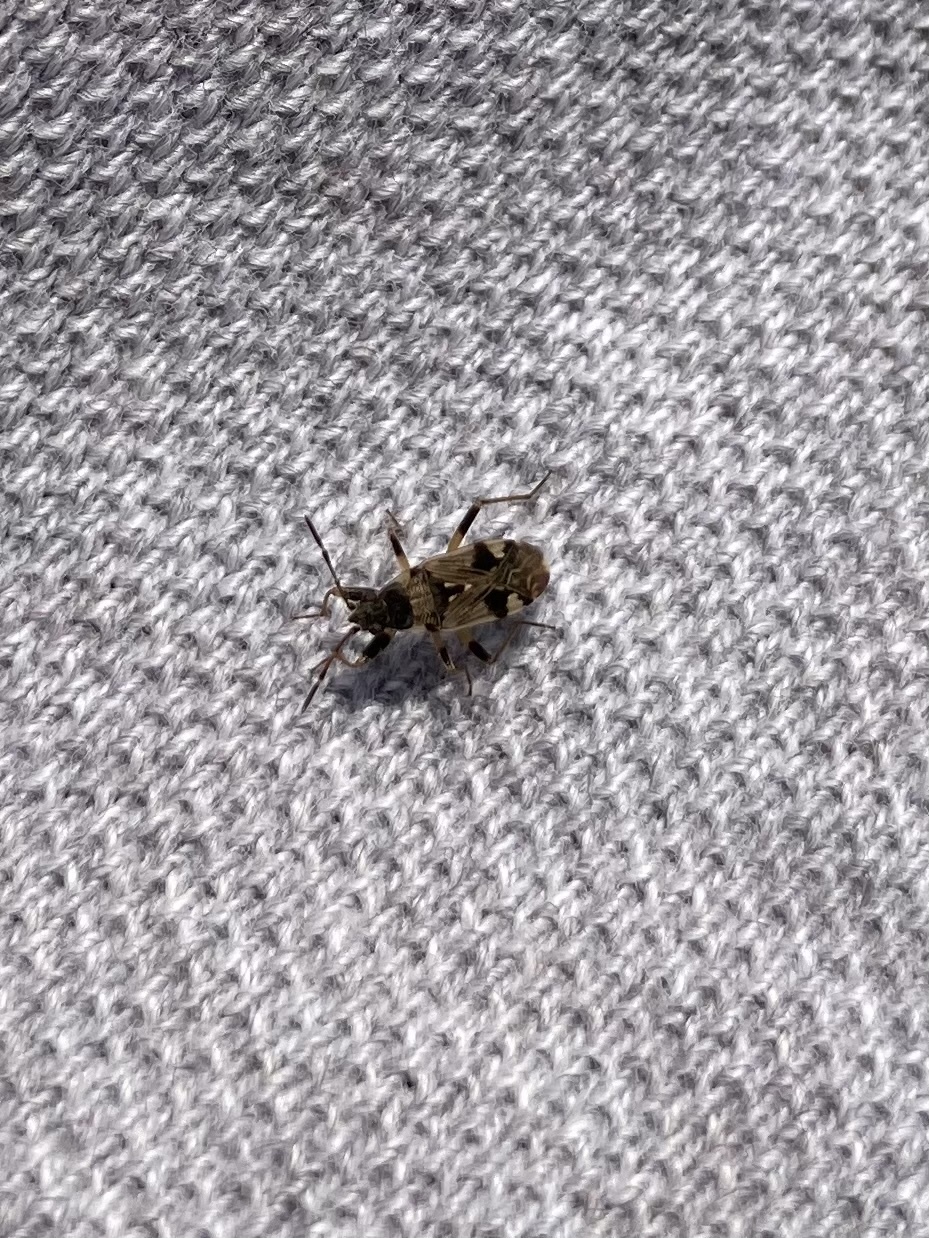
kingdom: Animalia
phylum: Arthropoda
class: Insecta
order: Hemiptera
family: Rhyparochromidae
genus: Beosus
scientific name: Beosus maritimus
